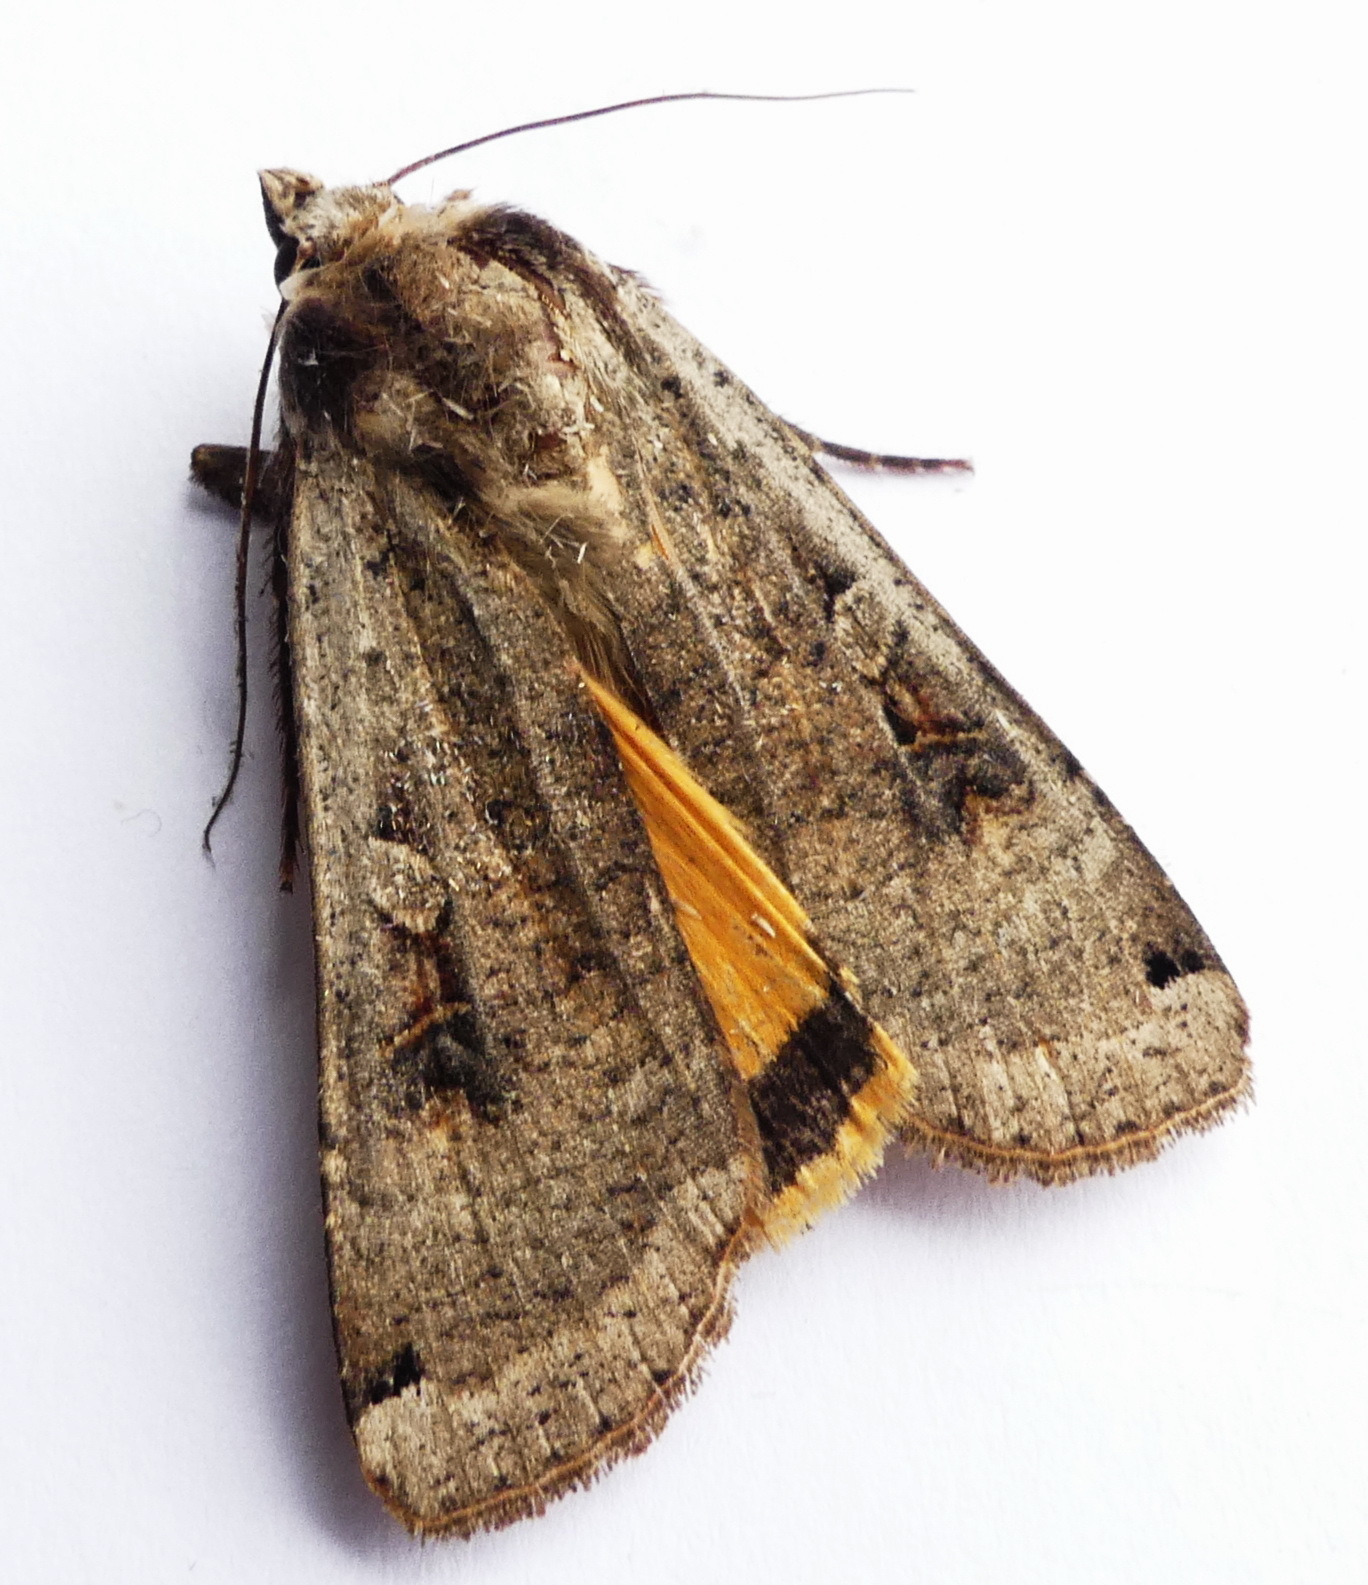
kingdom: Animalia
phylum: Arthropoda
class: Insecta
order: Lepidoptera
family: Noctuidae
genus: Noctua
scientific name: Noctua pronuba
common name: Large yellow underwing
